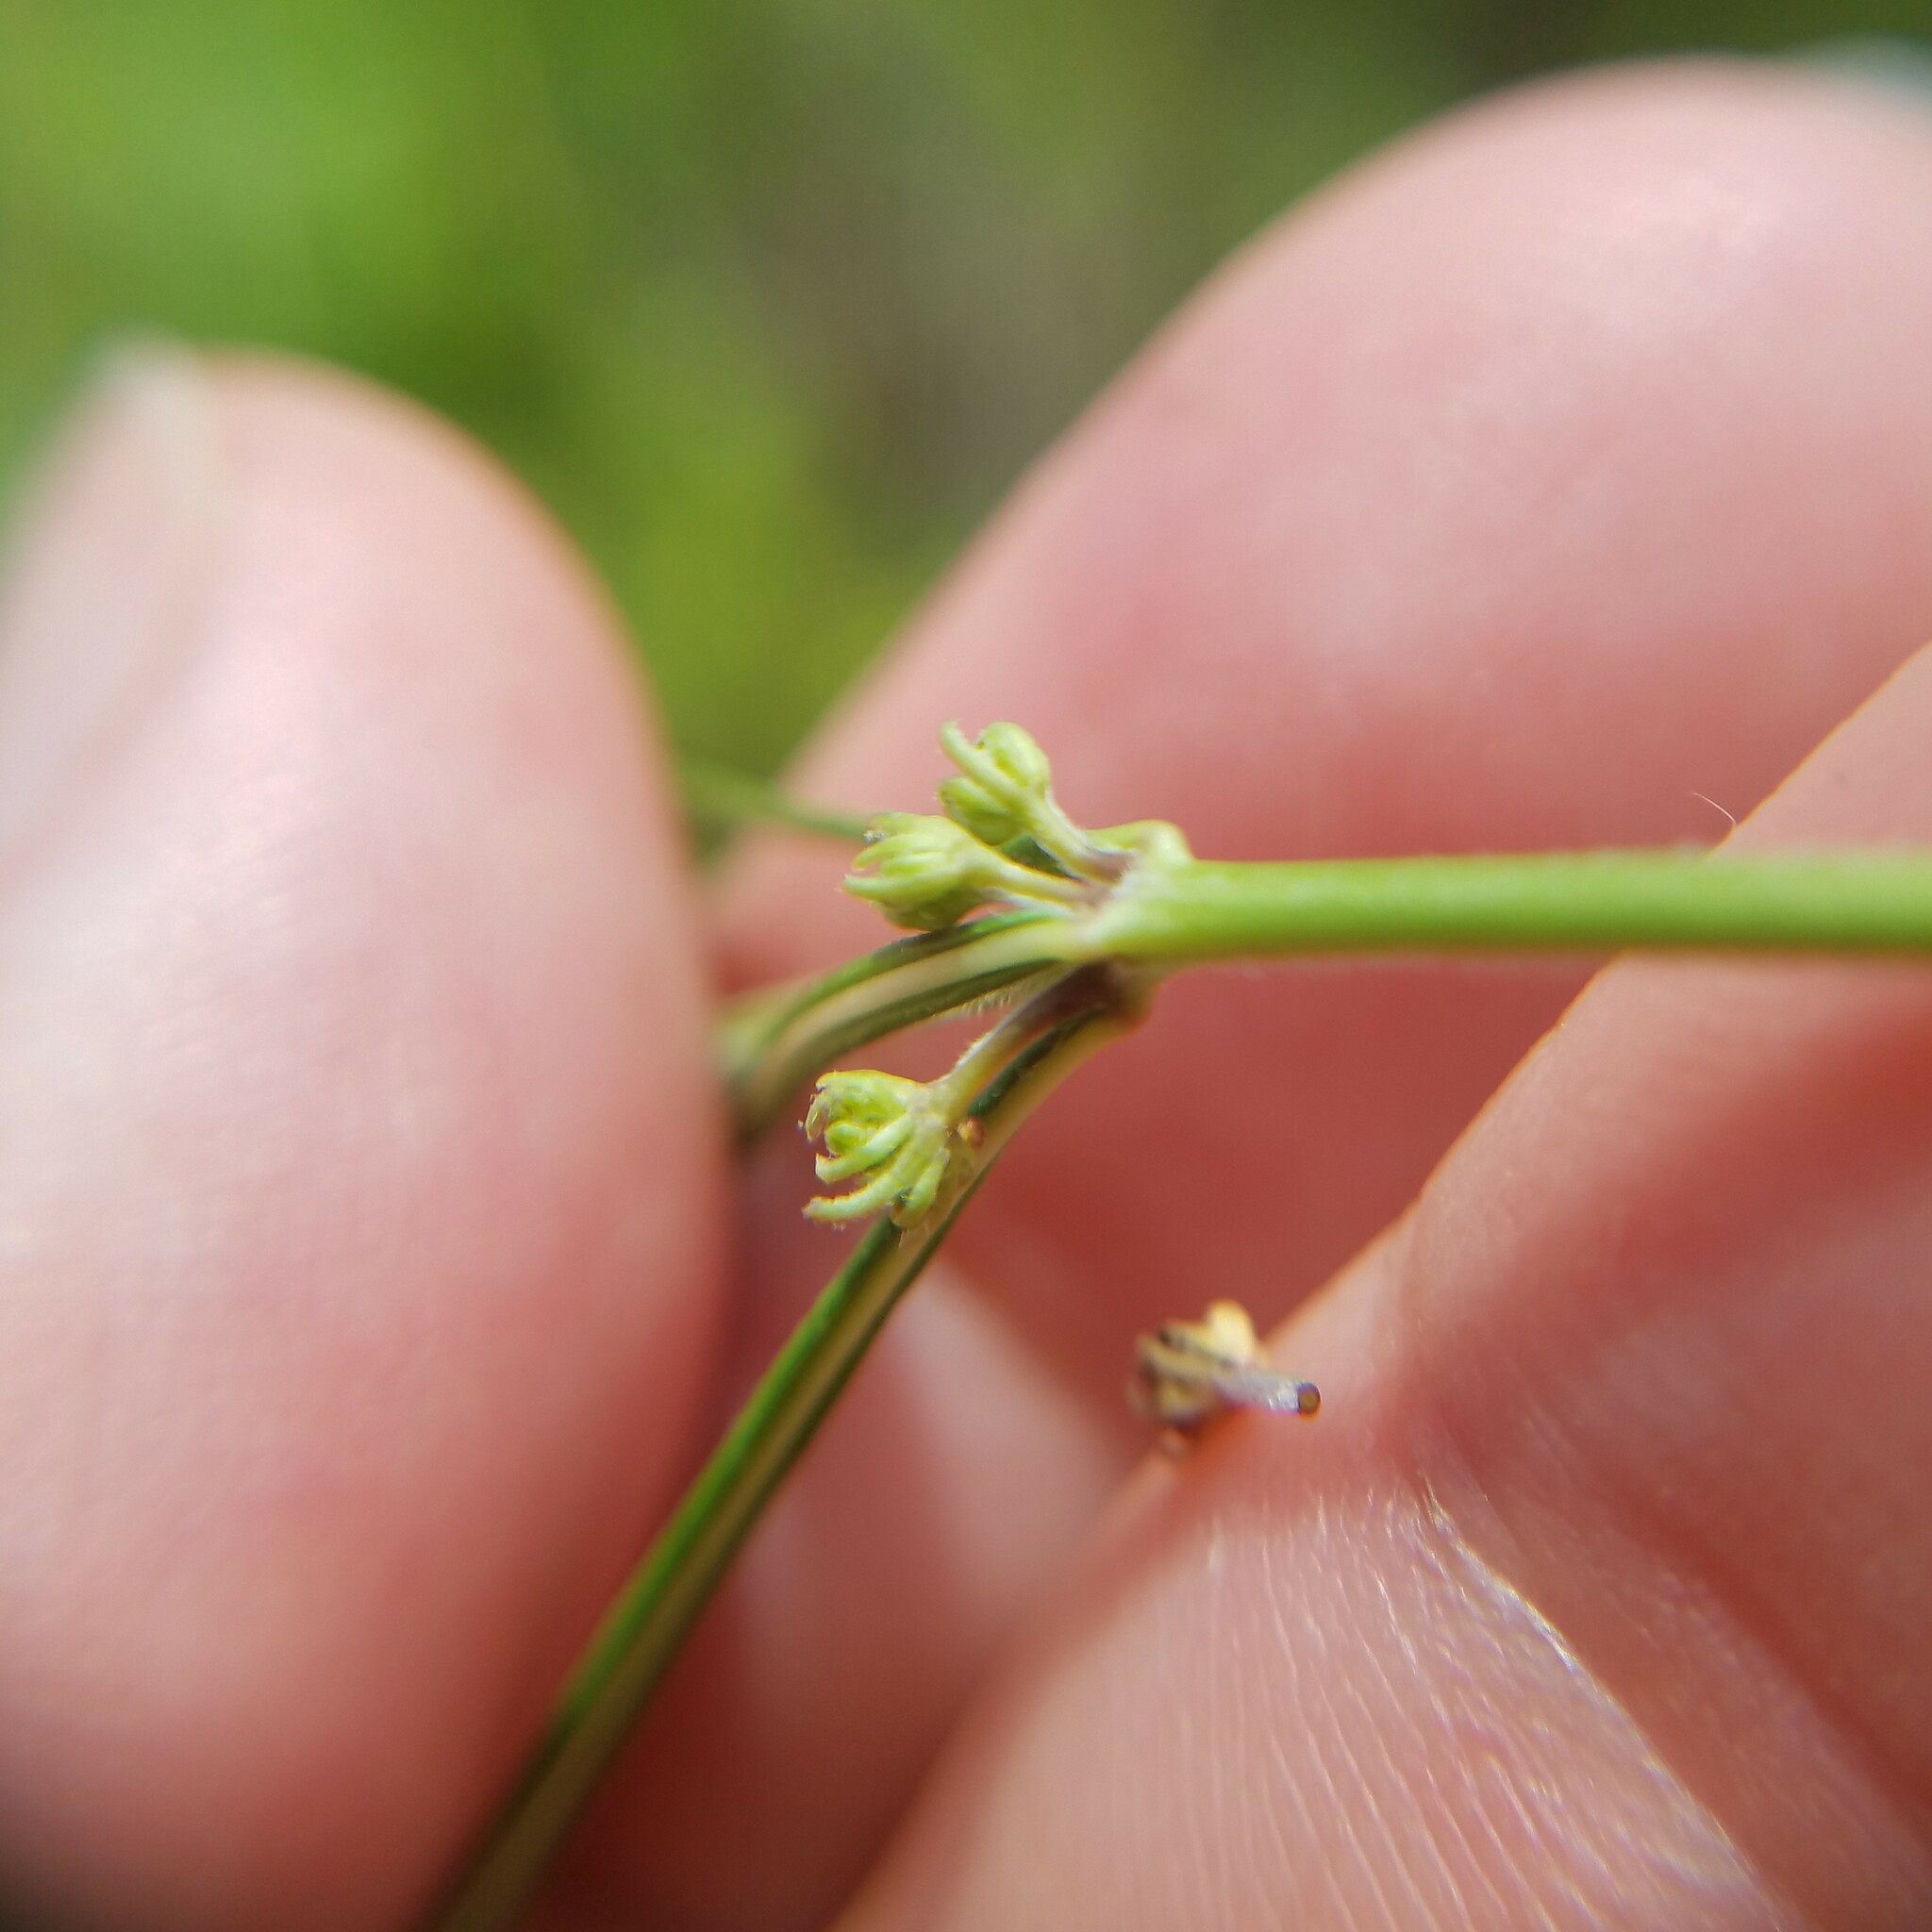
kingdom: Plantae
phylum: Tracheophyta
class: Magnoliopsida
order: Gentianales
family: Apocynaceae
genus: Asclepias
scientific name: Asclepias verticillata
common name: Eastern whorled milkweed
